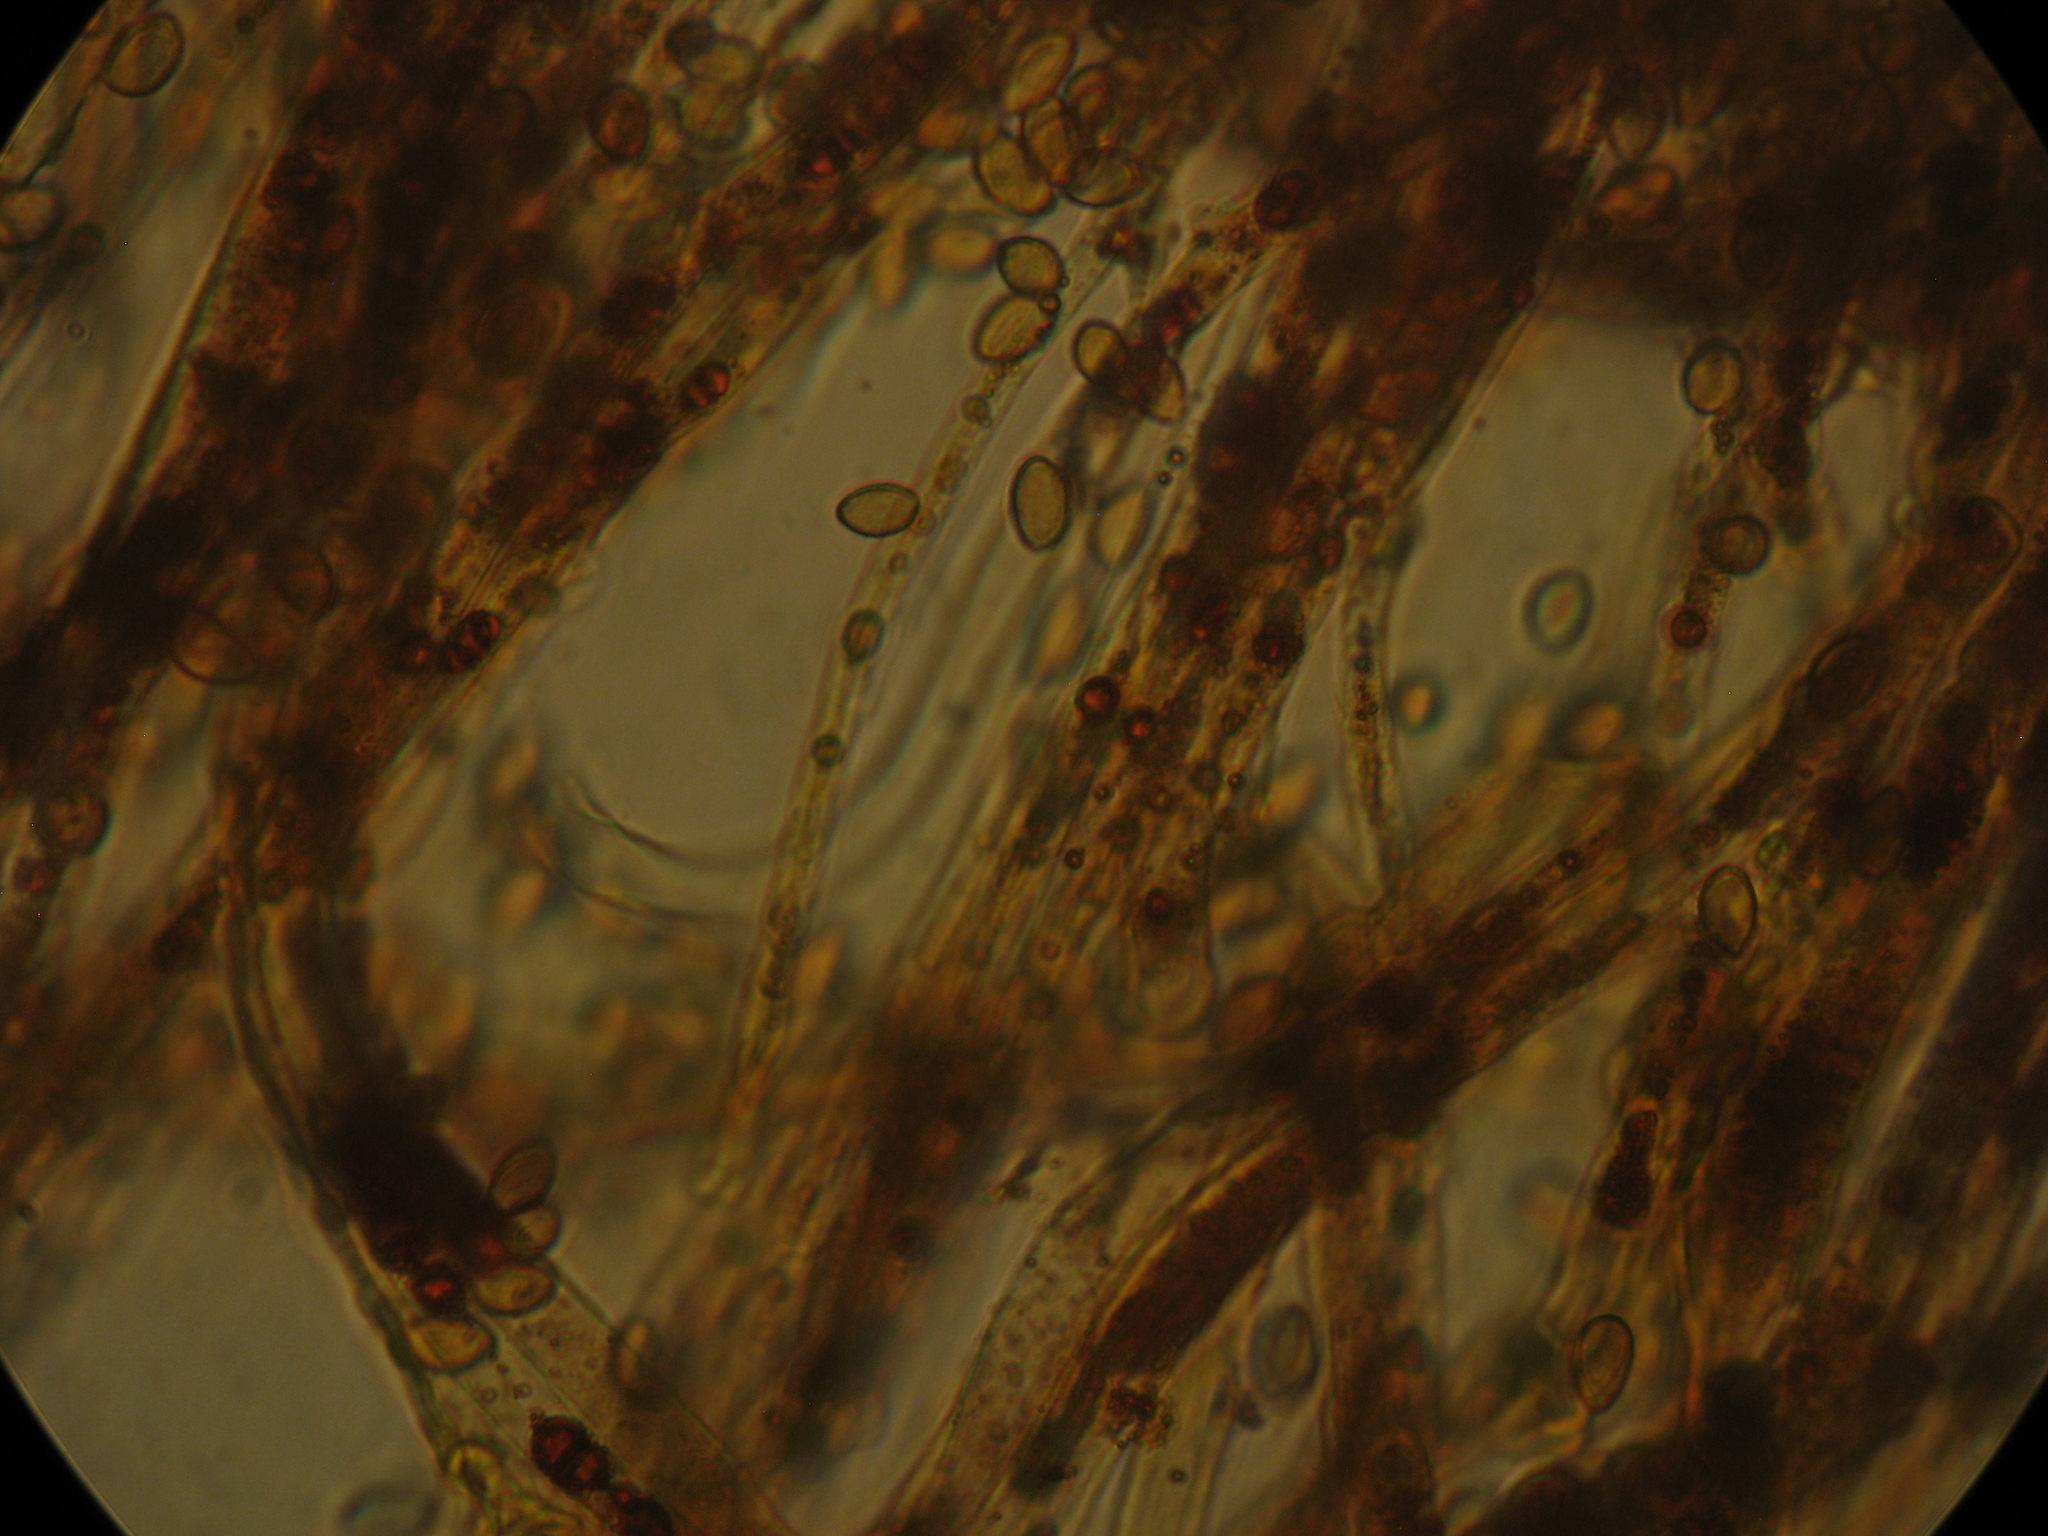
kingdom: Fungi
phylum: Basidiomycota
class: Agaricomycetes
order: Agaricales
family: Cortinariaceae
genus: Cortinarius
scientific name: Cortinarius minoscaurus
